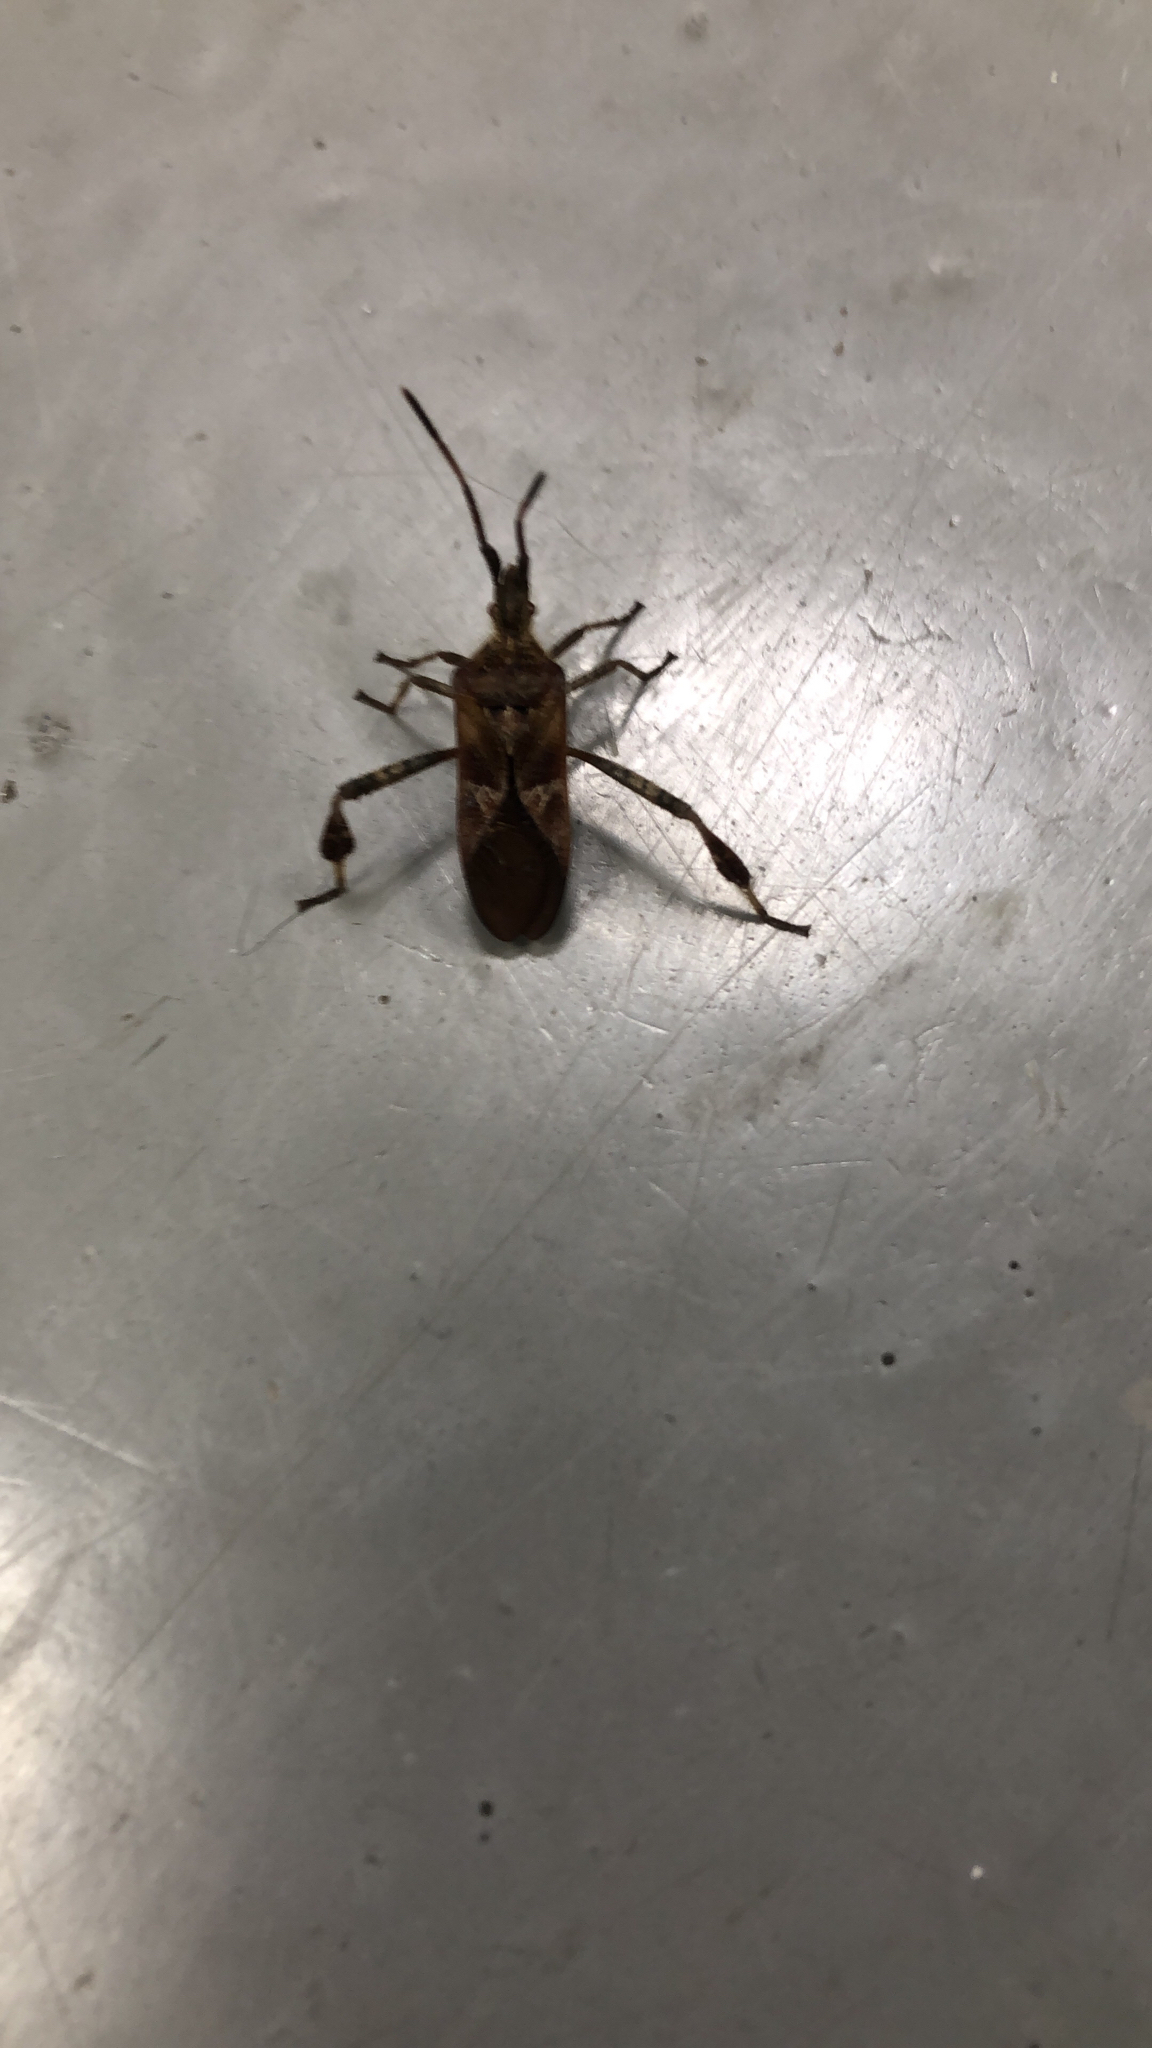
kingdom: Animalia
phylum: Arthropoda
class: Insecta
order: Hemiptera
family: Coreidae
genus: Leptoglossus
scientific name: Leptoglossus occidentalis
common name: Western conifer-seed bug
